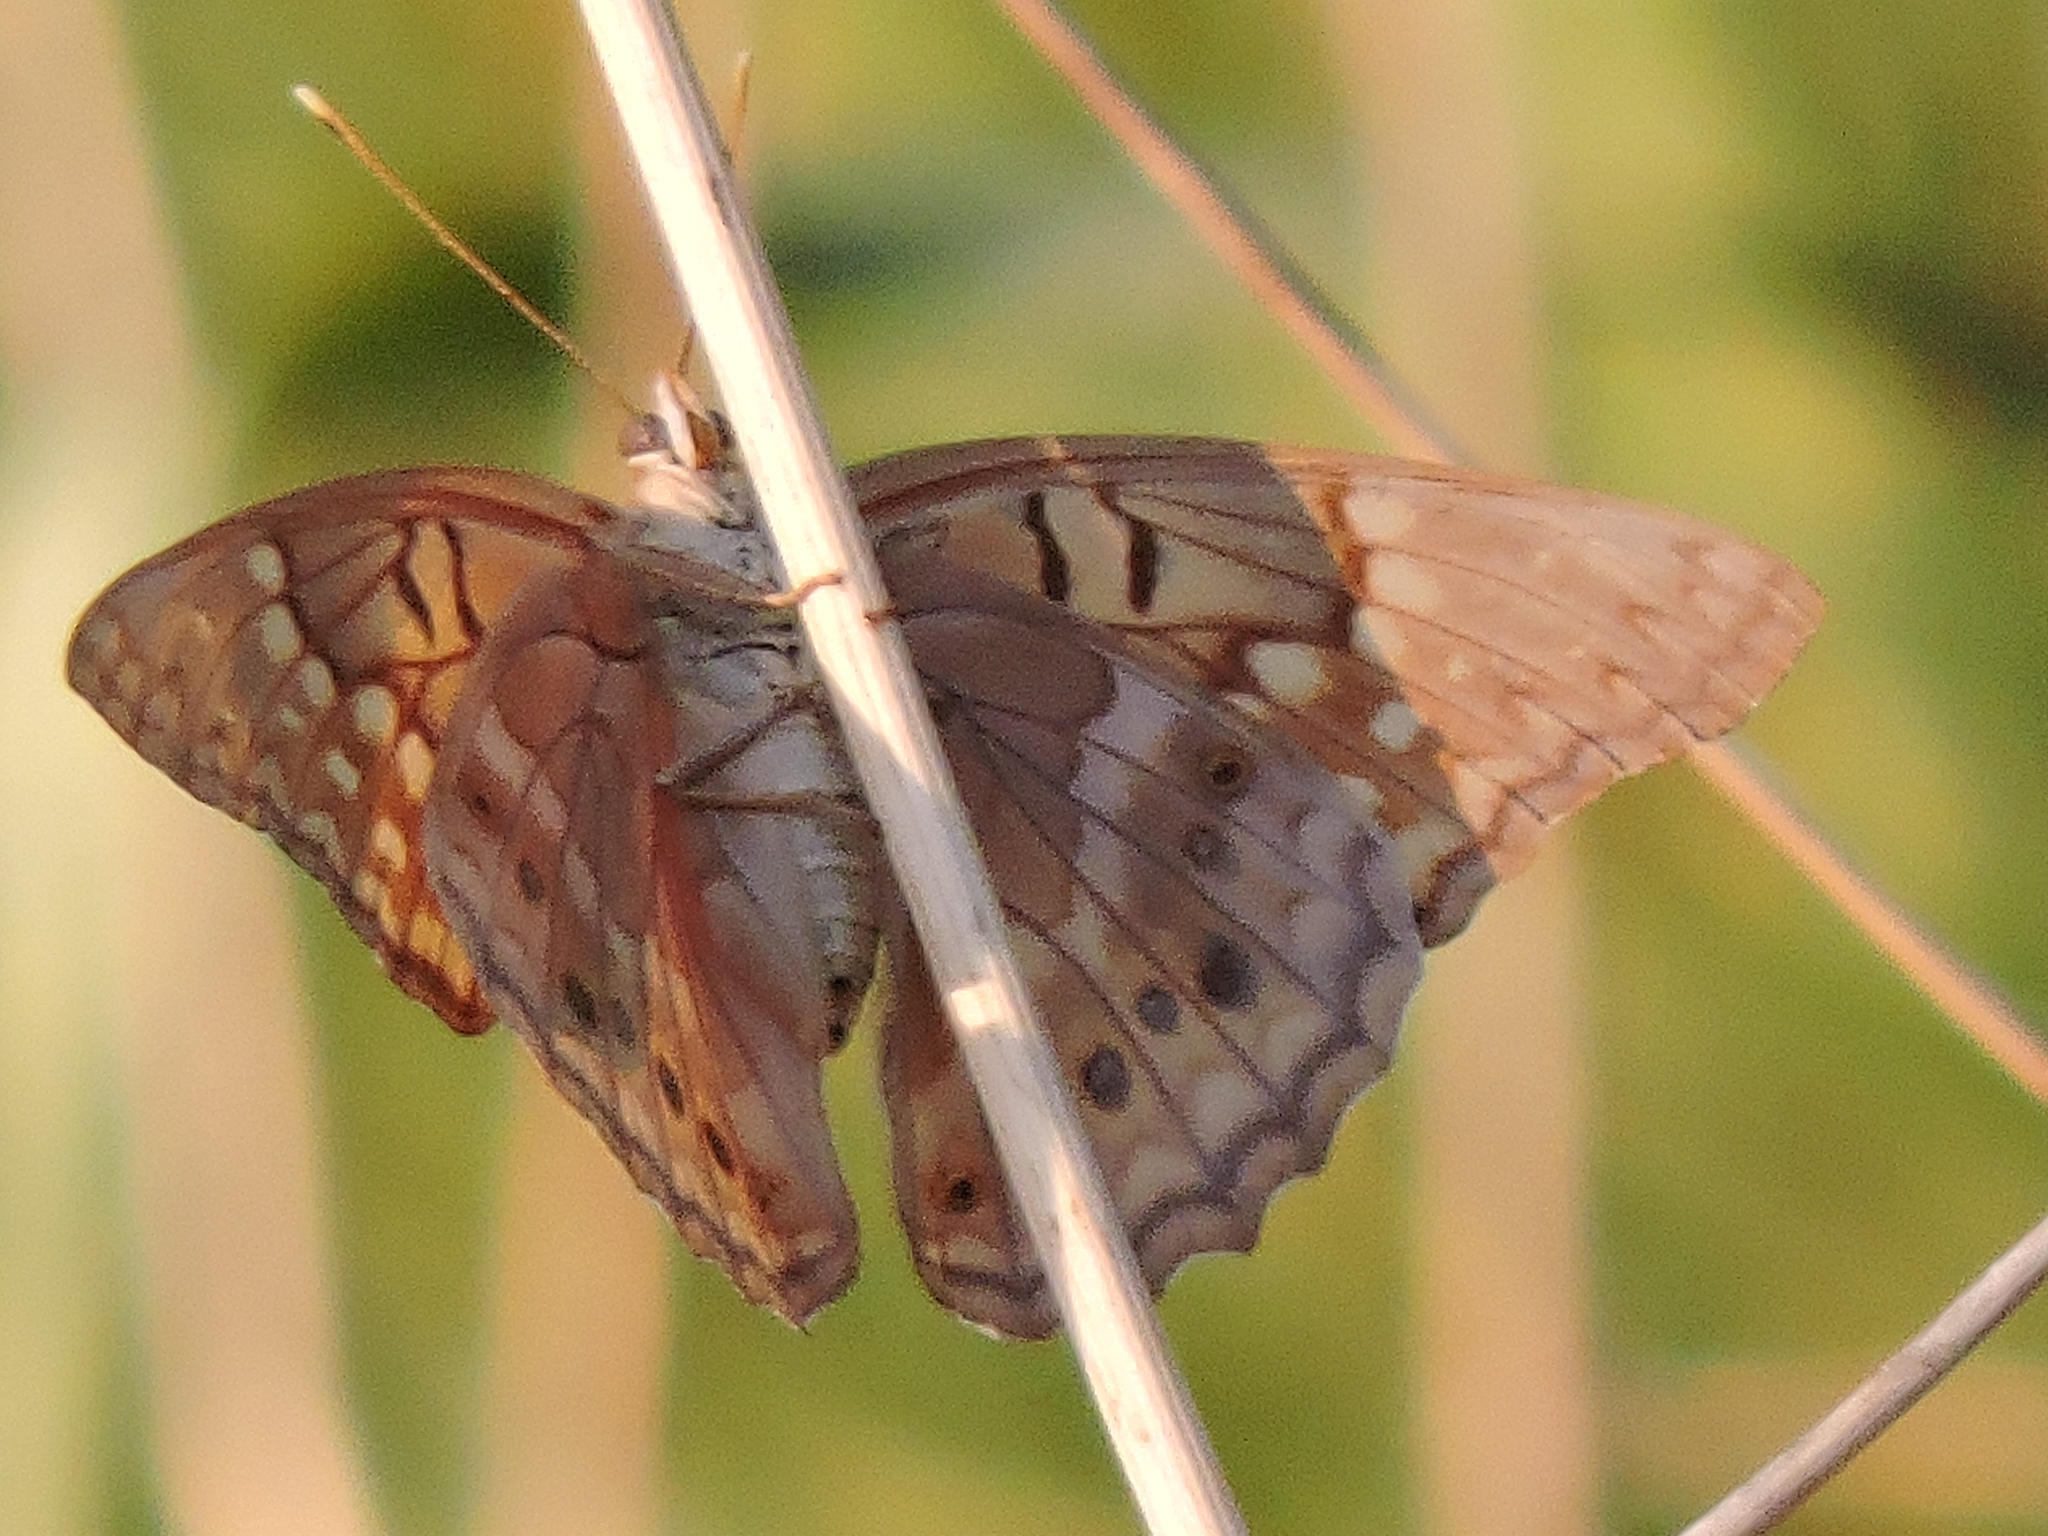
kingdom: Animalia
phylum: Arthropoda
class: Insecta
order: Lepidoptera
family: Nymphalidae
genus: Asterocampa
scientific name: Asterocampa clyton
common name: Tawny emperor
